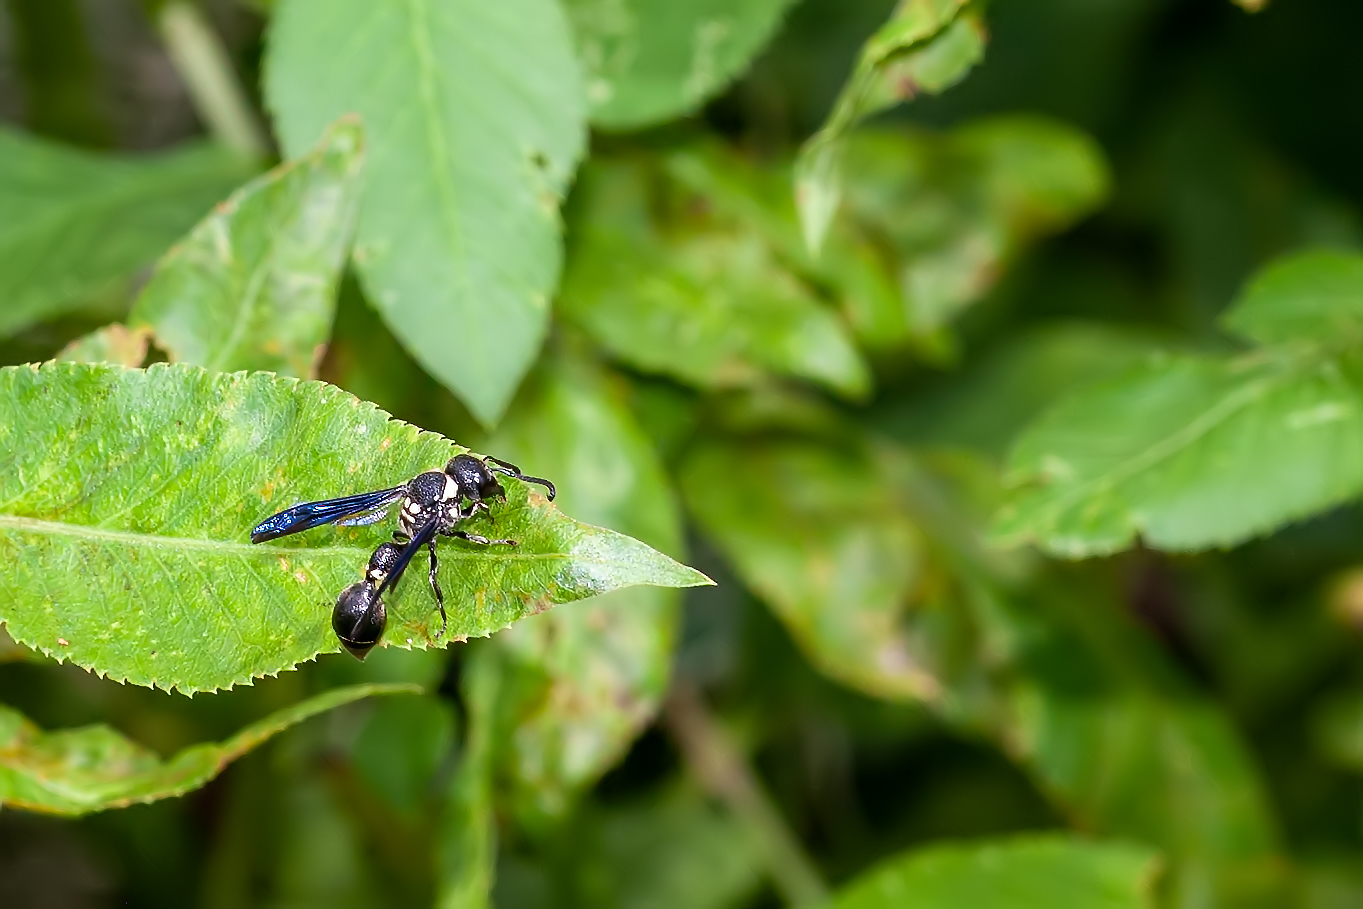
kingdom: Animalia
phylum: Arthropoda
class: Insecta
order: Hymenoptera
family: Eumenidae
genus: Zethus
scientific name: Zethus spinipes
